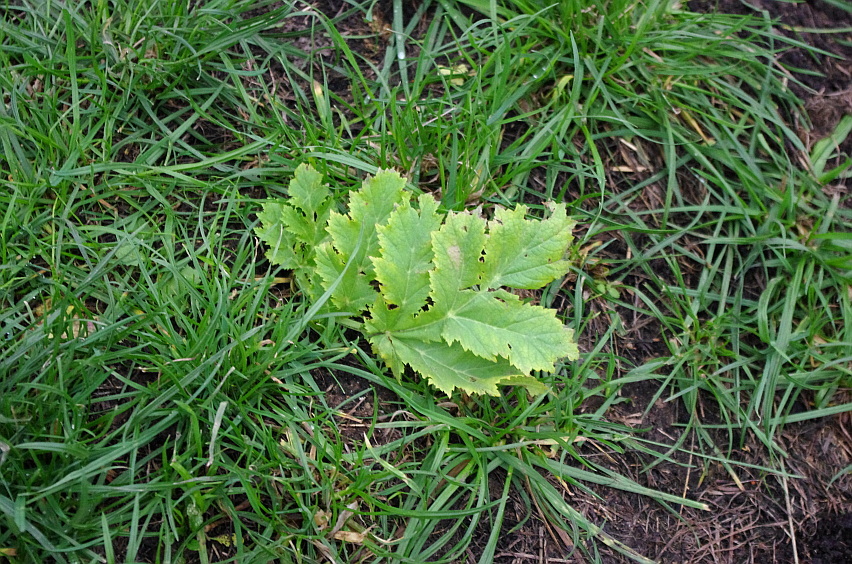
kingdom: Plantae
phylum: Tracheophyta
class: Magnoliopsida
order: Apiales
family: Apiaceae
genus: Heracleum
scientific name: Heracleum sosnowskyi
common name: Sosnowsky's hogweed
